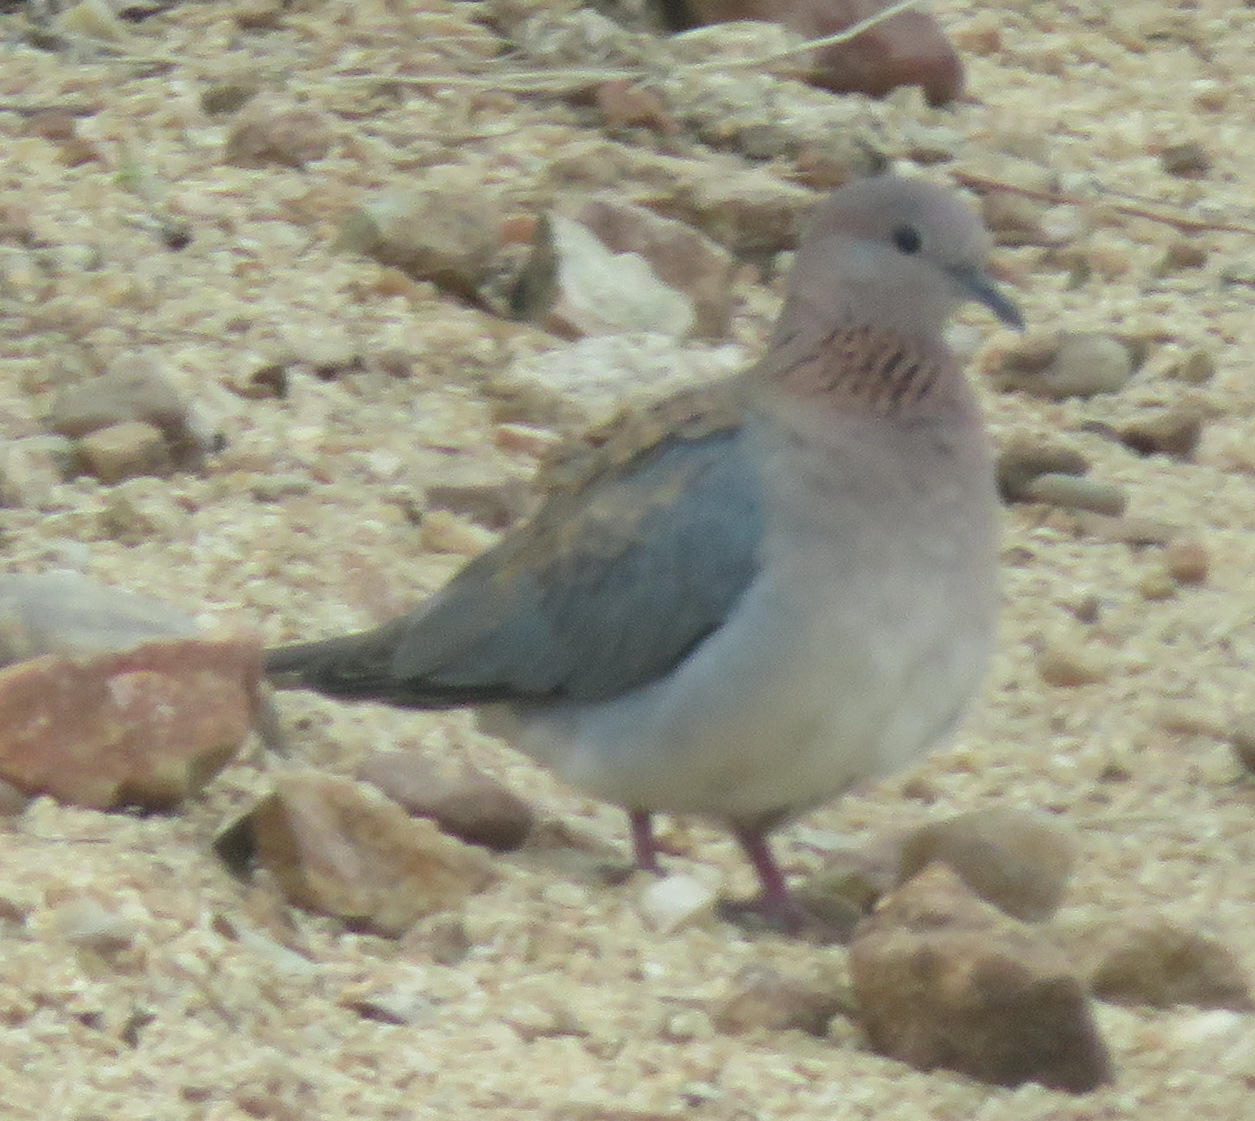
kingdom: Animalia
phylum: Chordata
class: Aves
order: Columbiformes
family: Columbidae
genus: Spilopelia
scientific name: Spilopelia senegalensis
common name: Laughing dove
